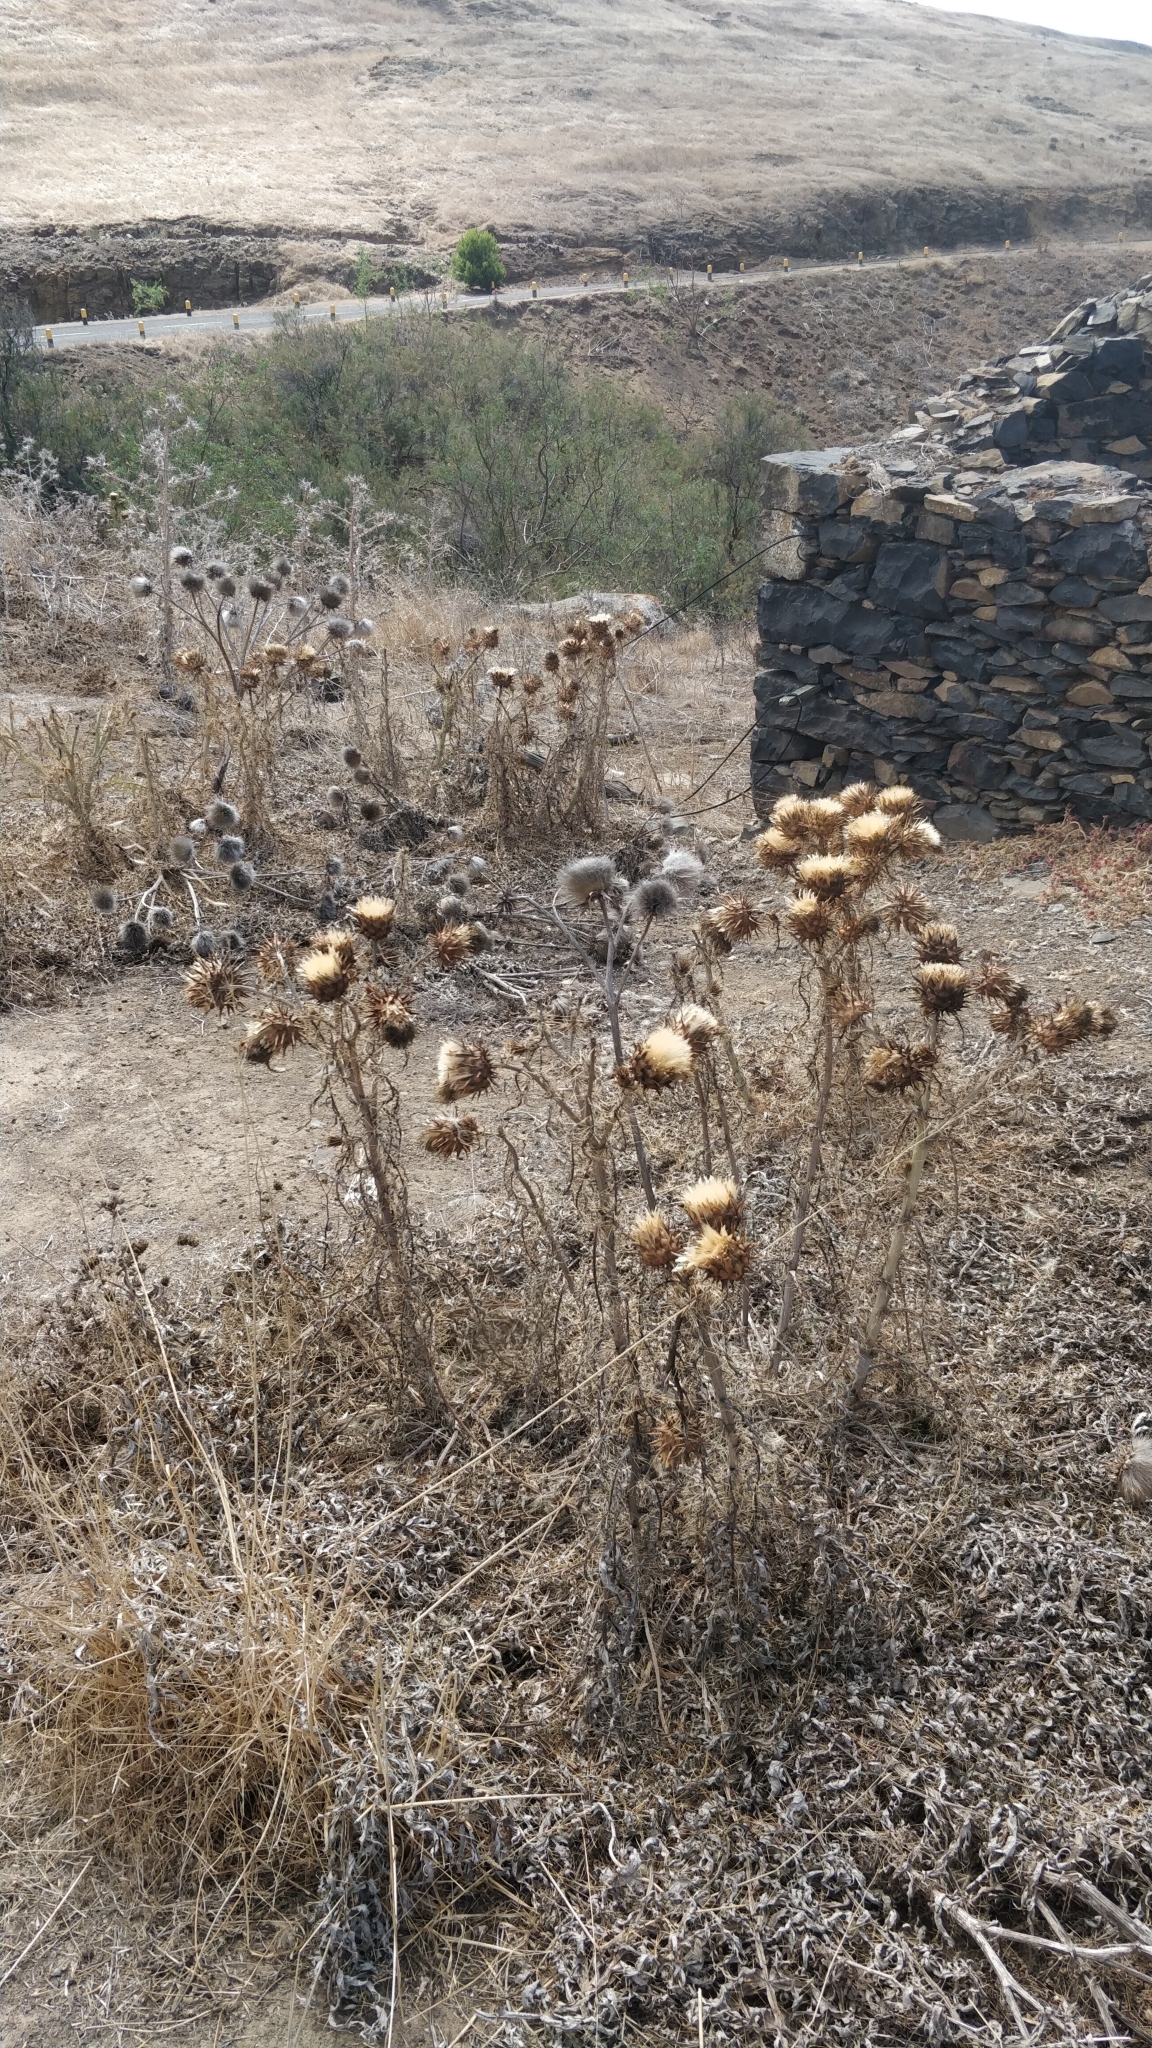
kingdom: Plantae
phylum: Tracheophyta
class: Magnoliopsida
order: Asterales
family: Asteraceae
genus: Cynara
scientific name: Cynara cardunculus
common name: Globe artichoke
